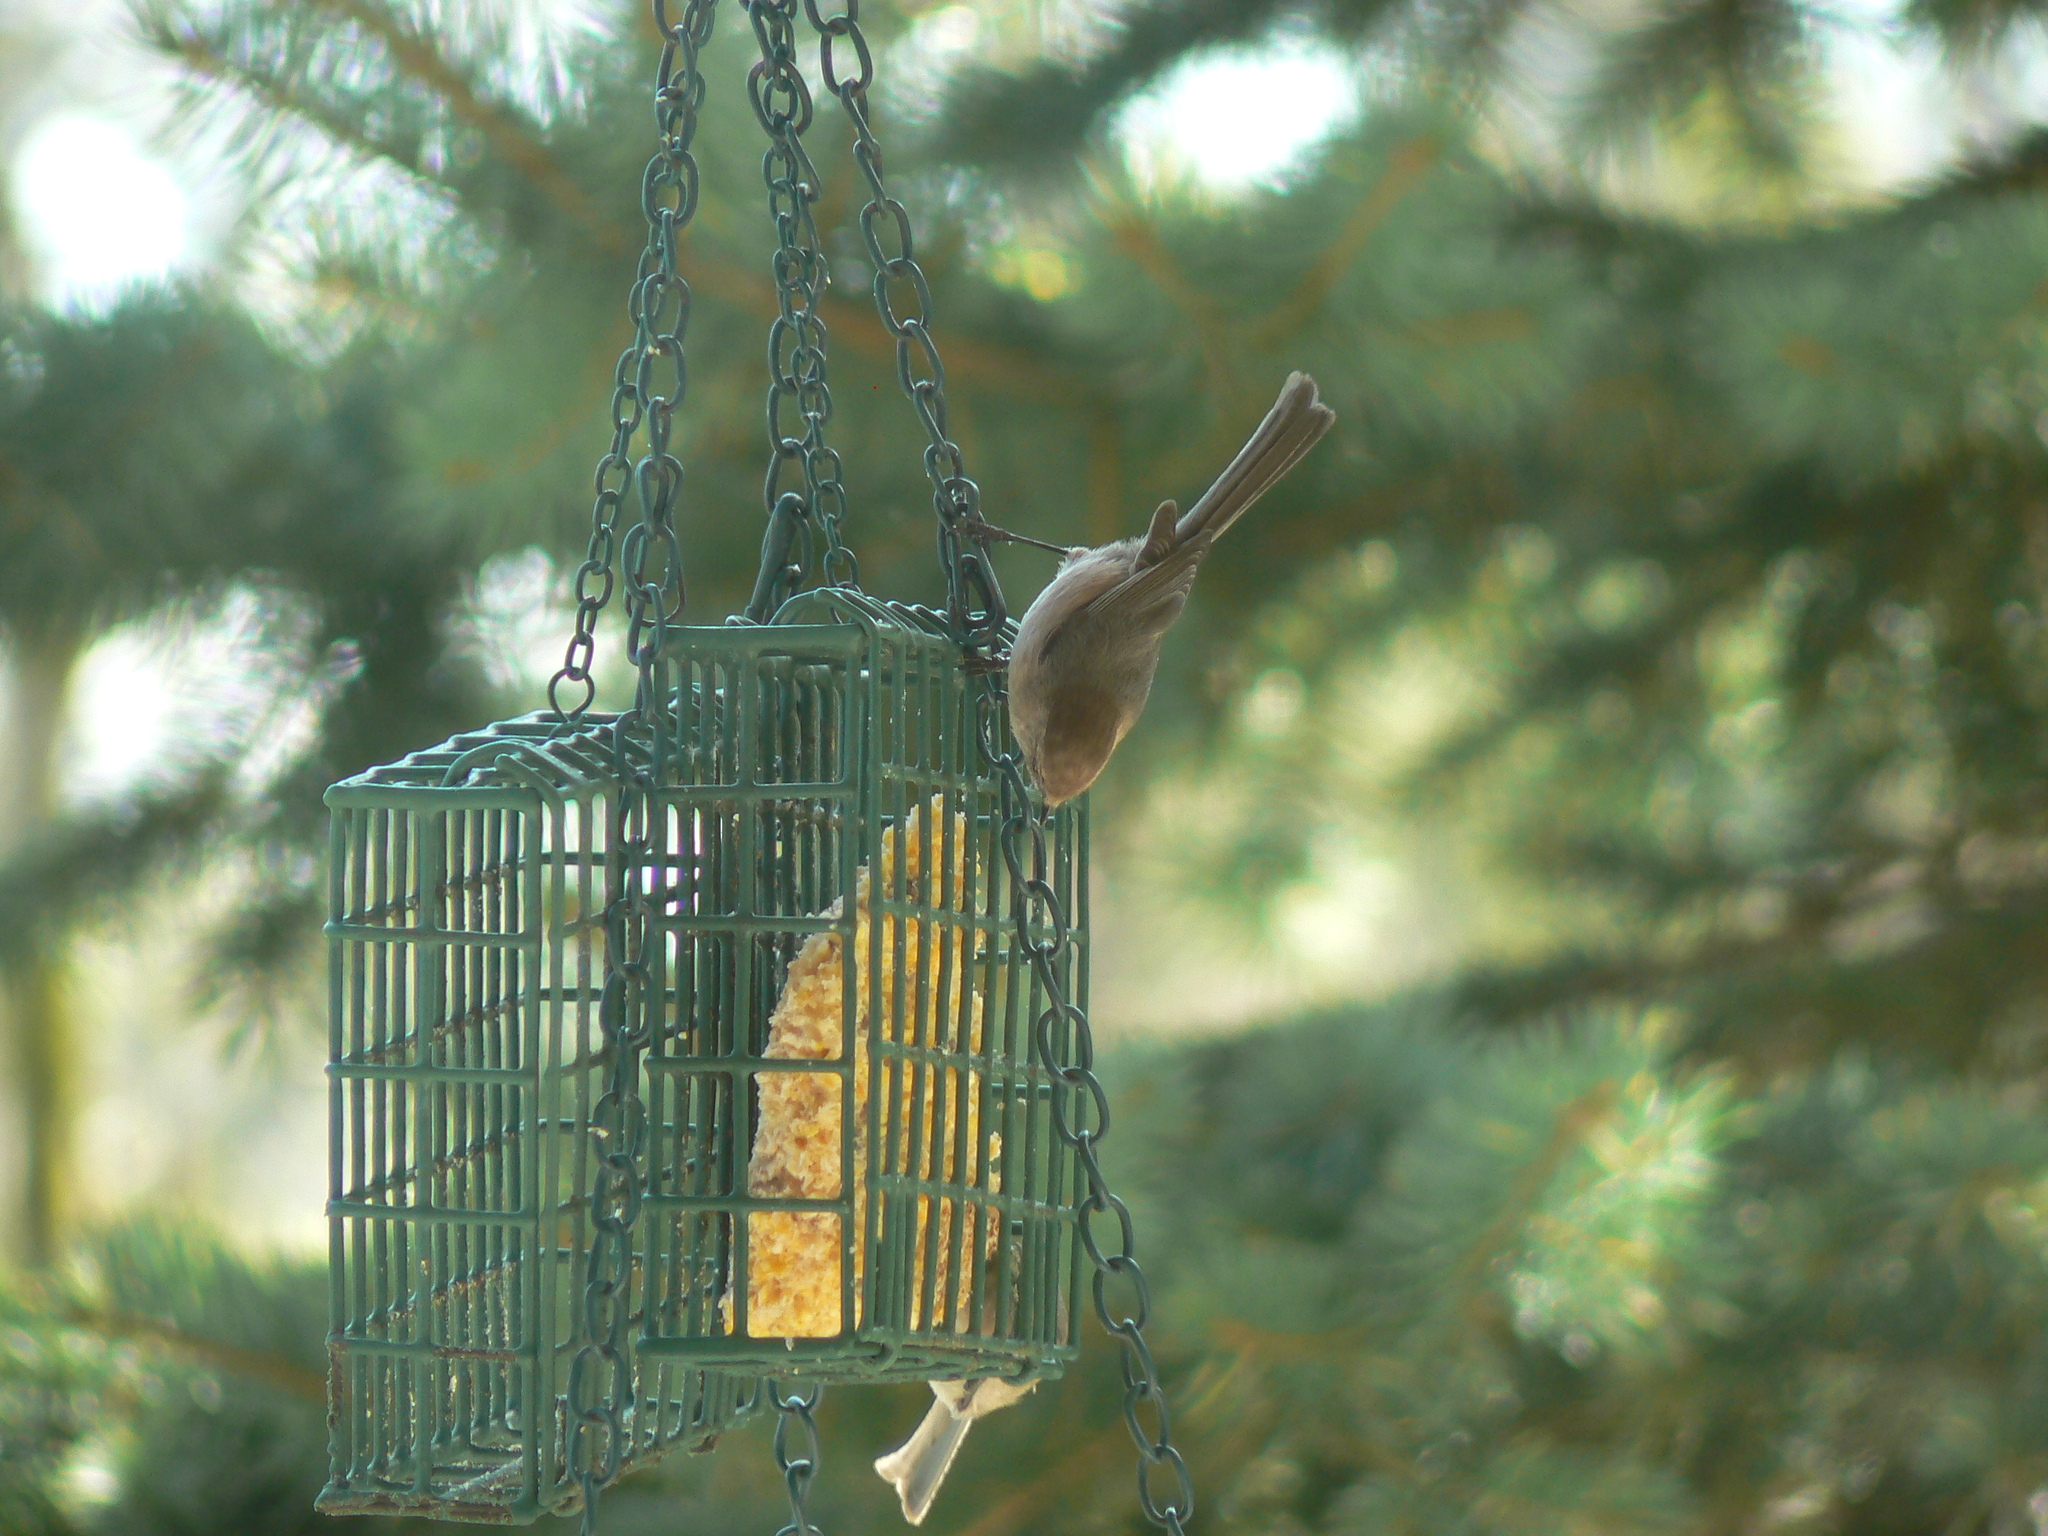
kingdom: Animalia
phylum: Chordata
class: Aves
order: Passeriformes
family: Aegithalidae
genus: Psaltriparus
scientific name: Psaltriparus minimus
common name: American bushtit
